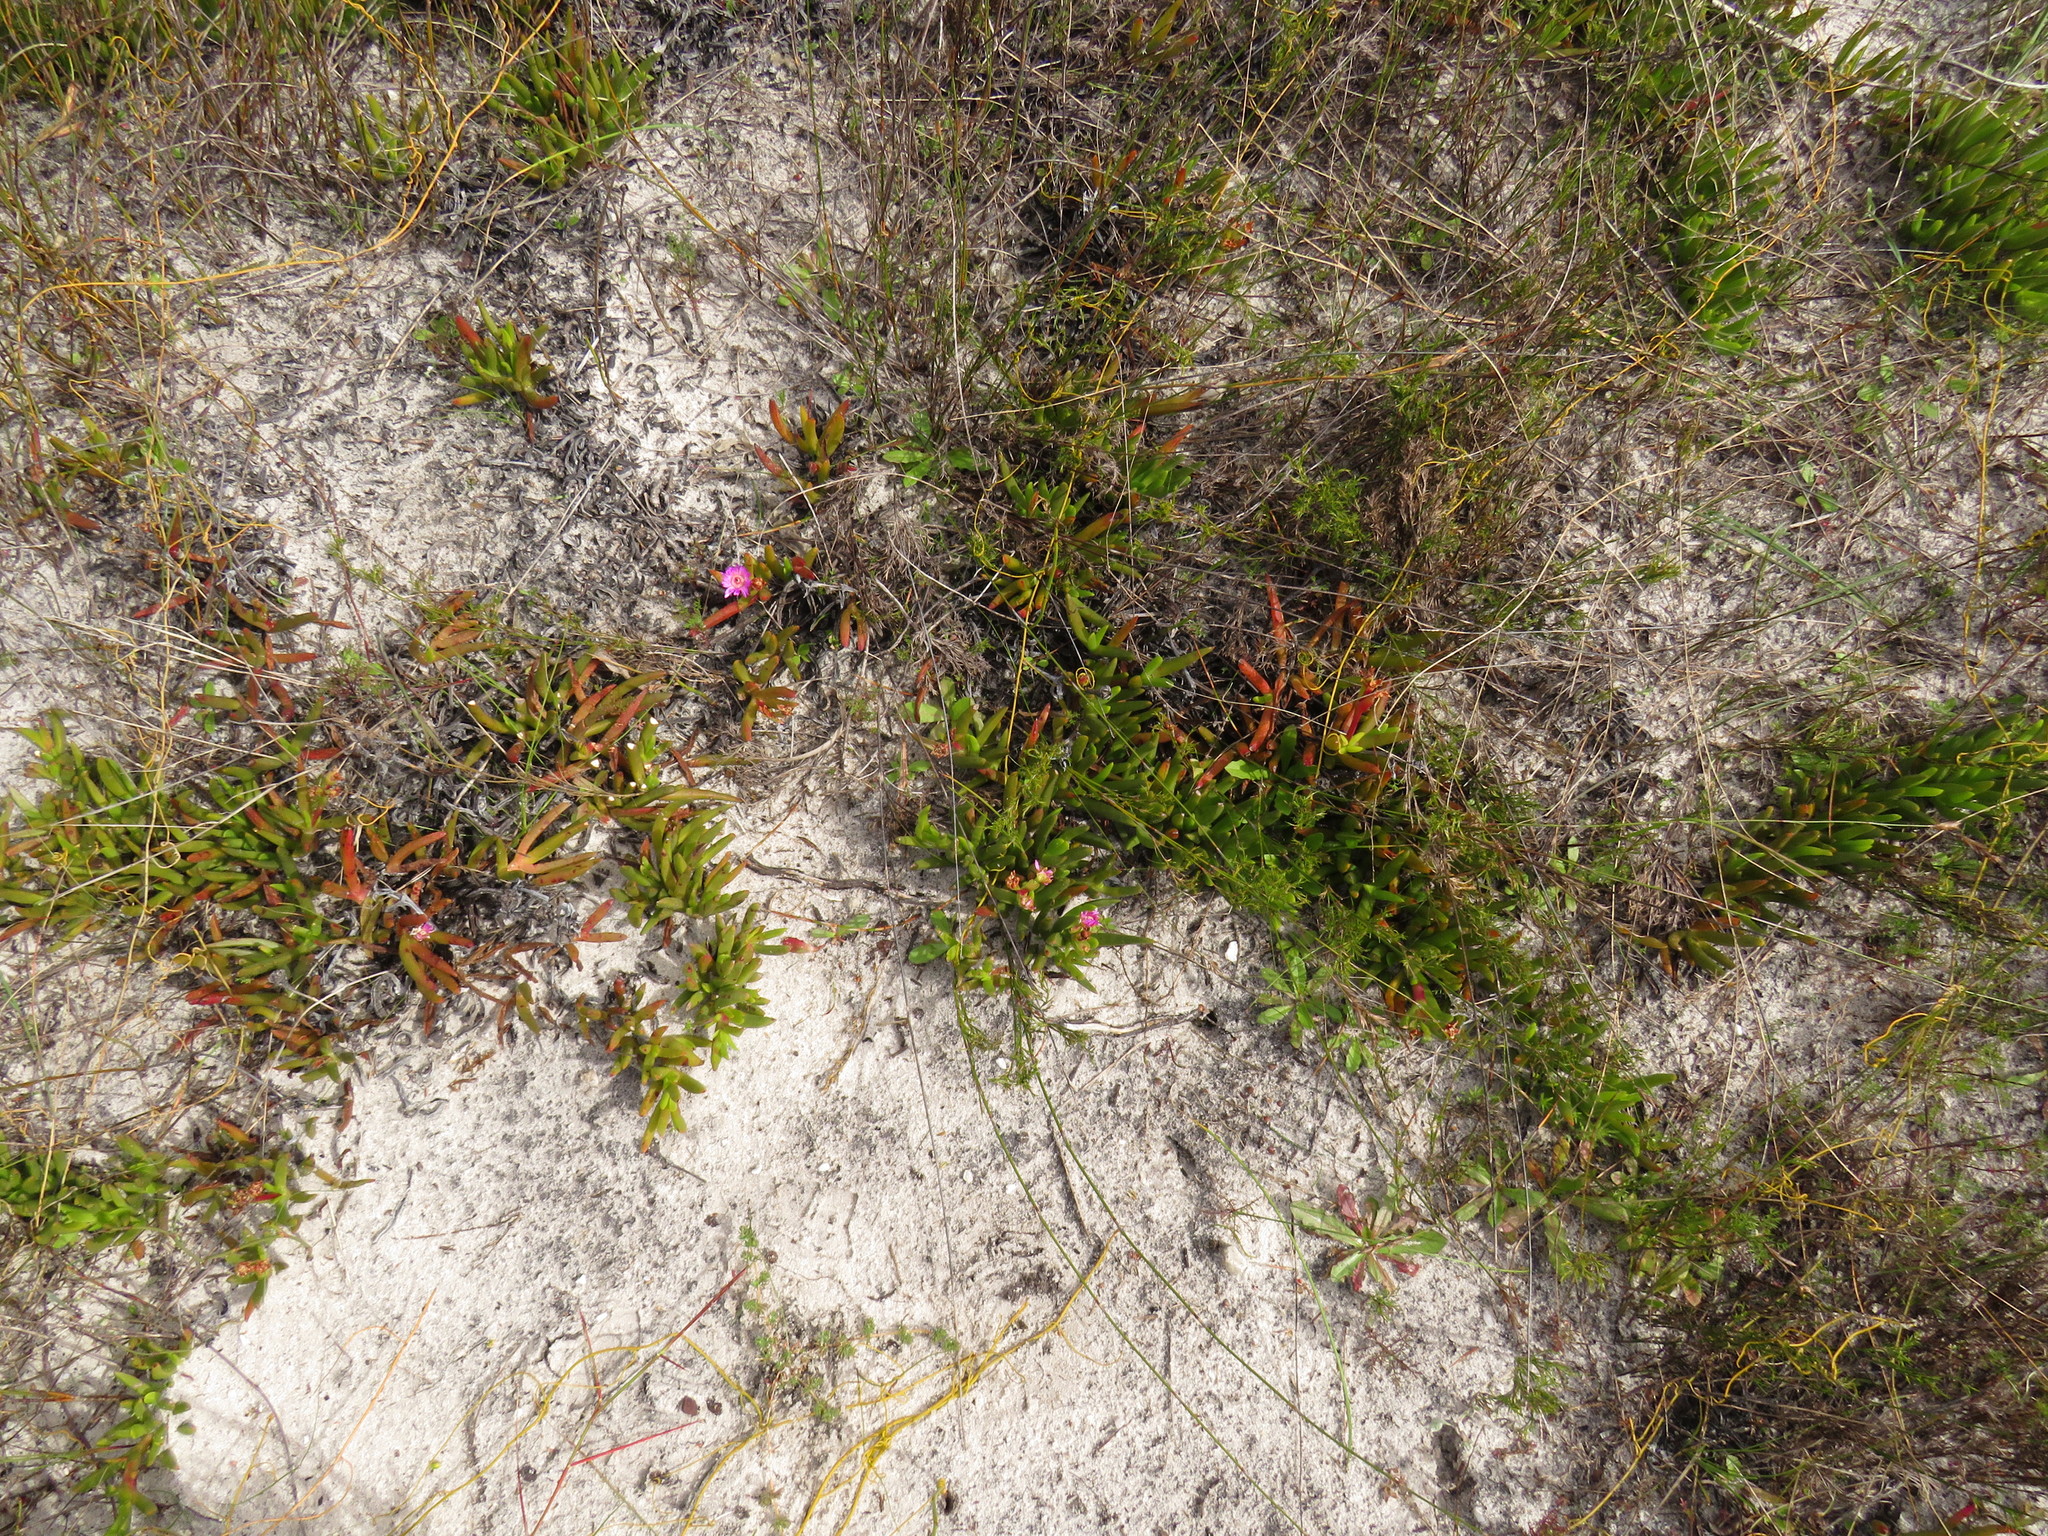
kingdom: Plantae
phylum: Tracheophyta
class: Magnoliopsida
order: Caryophyllales
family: Aizoaceae
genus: Ruschia
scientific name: Ruschia sarmentosa
